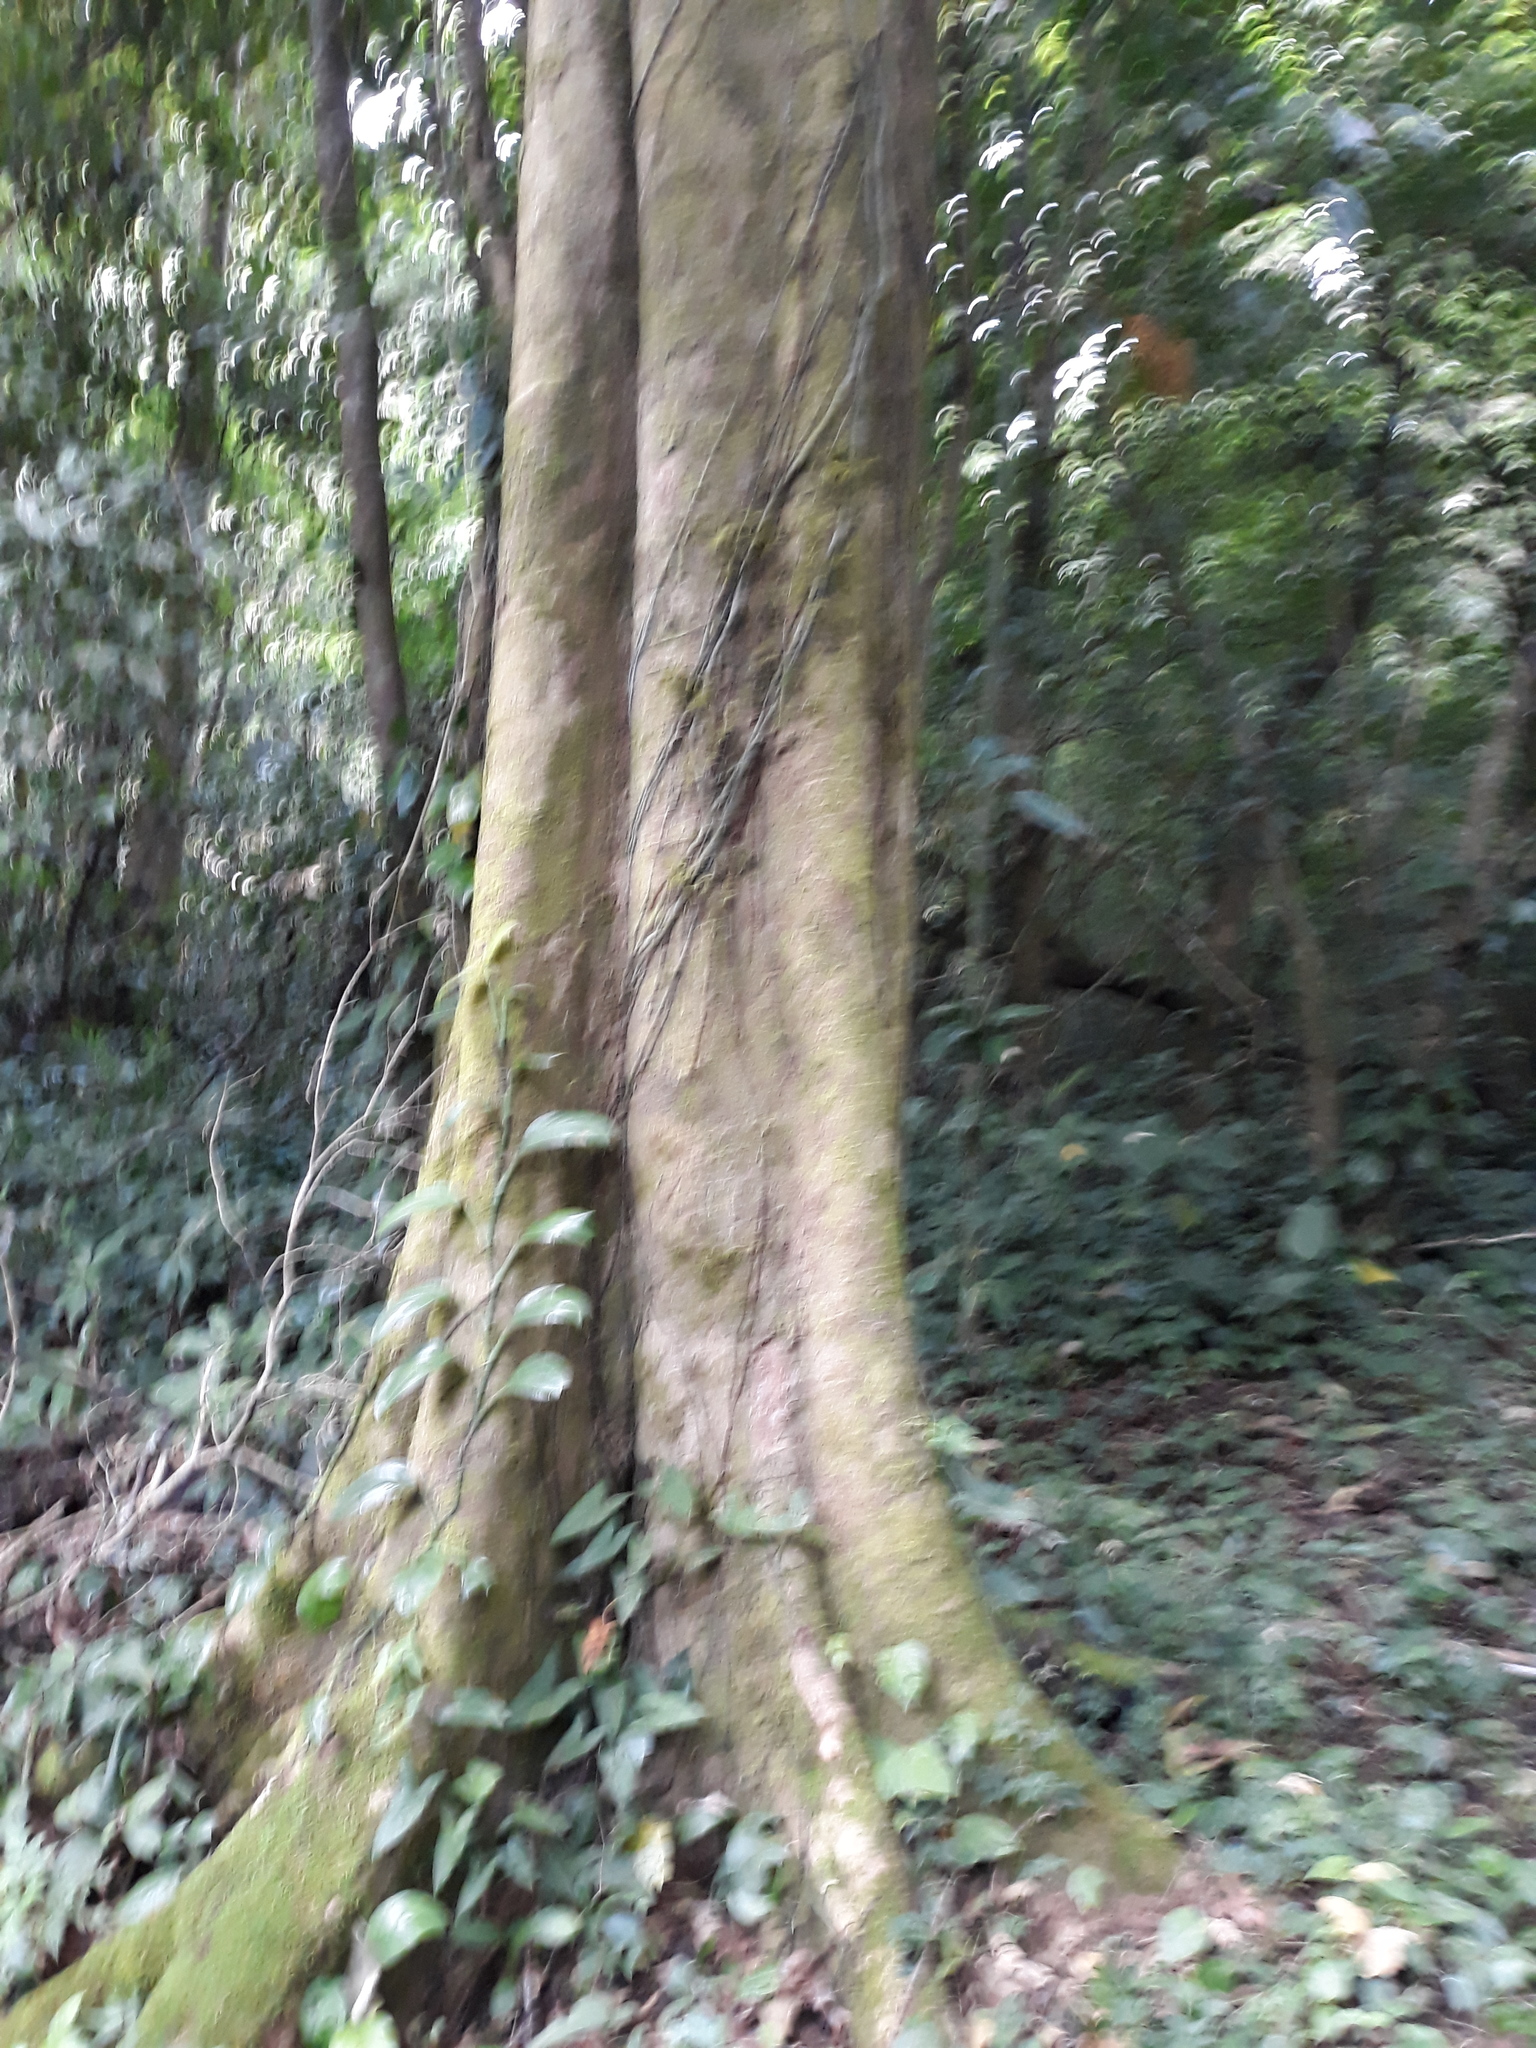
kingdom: Plantae
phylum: Tracheophyta
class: Magnoliopsida
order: Malvales
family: Malvaceae
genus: Robinsonella
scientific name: Robinsonella mirandae
